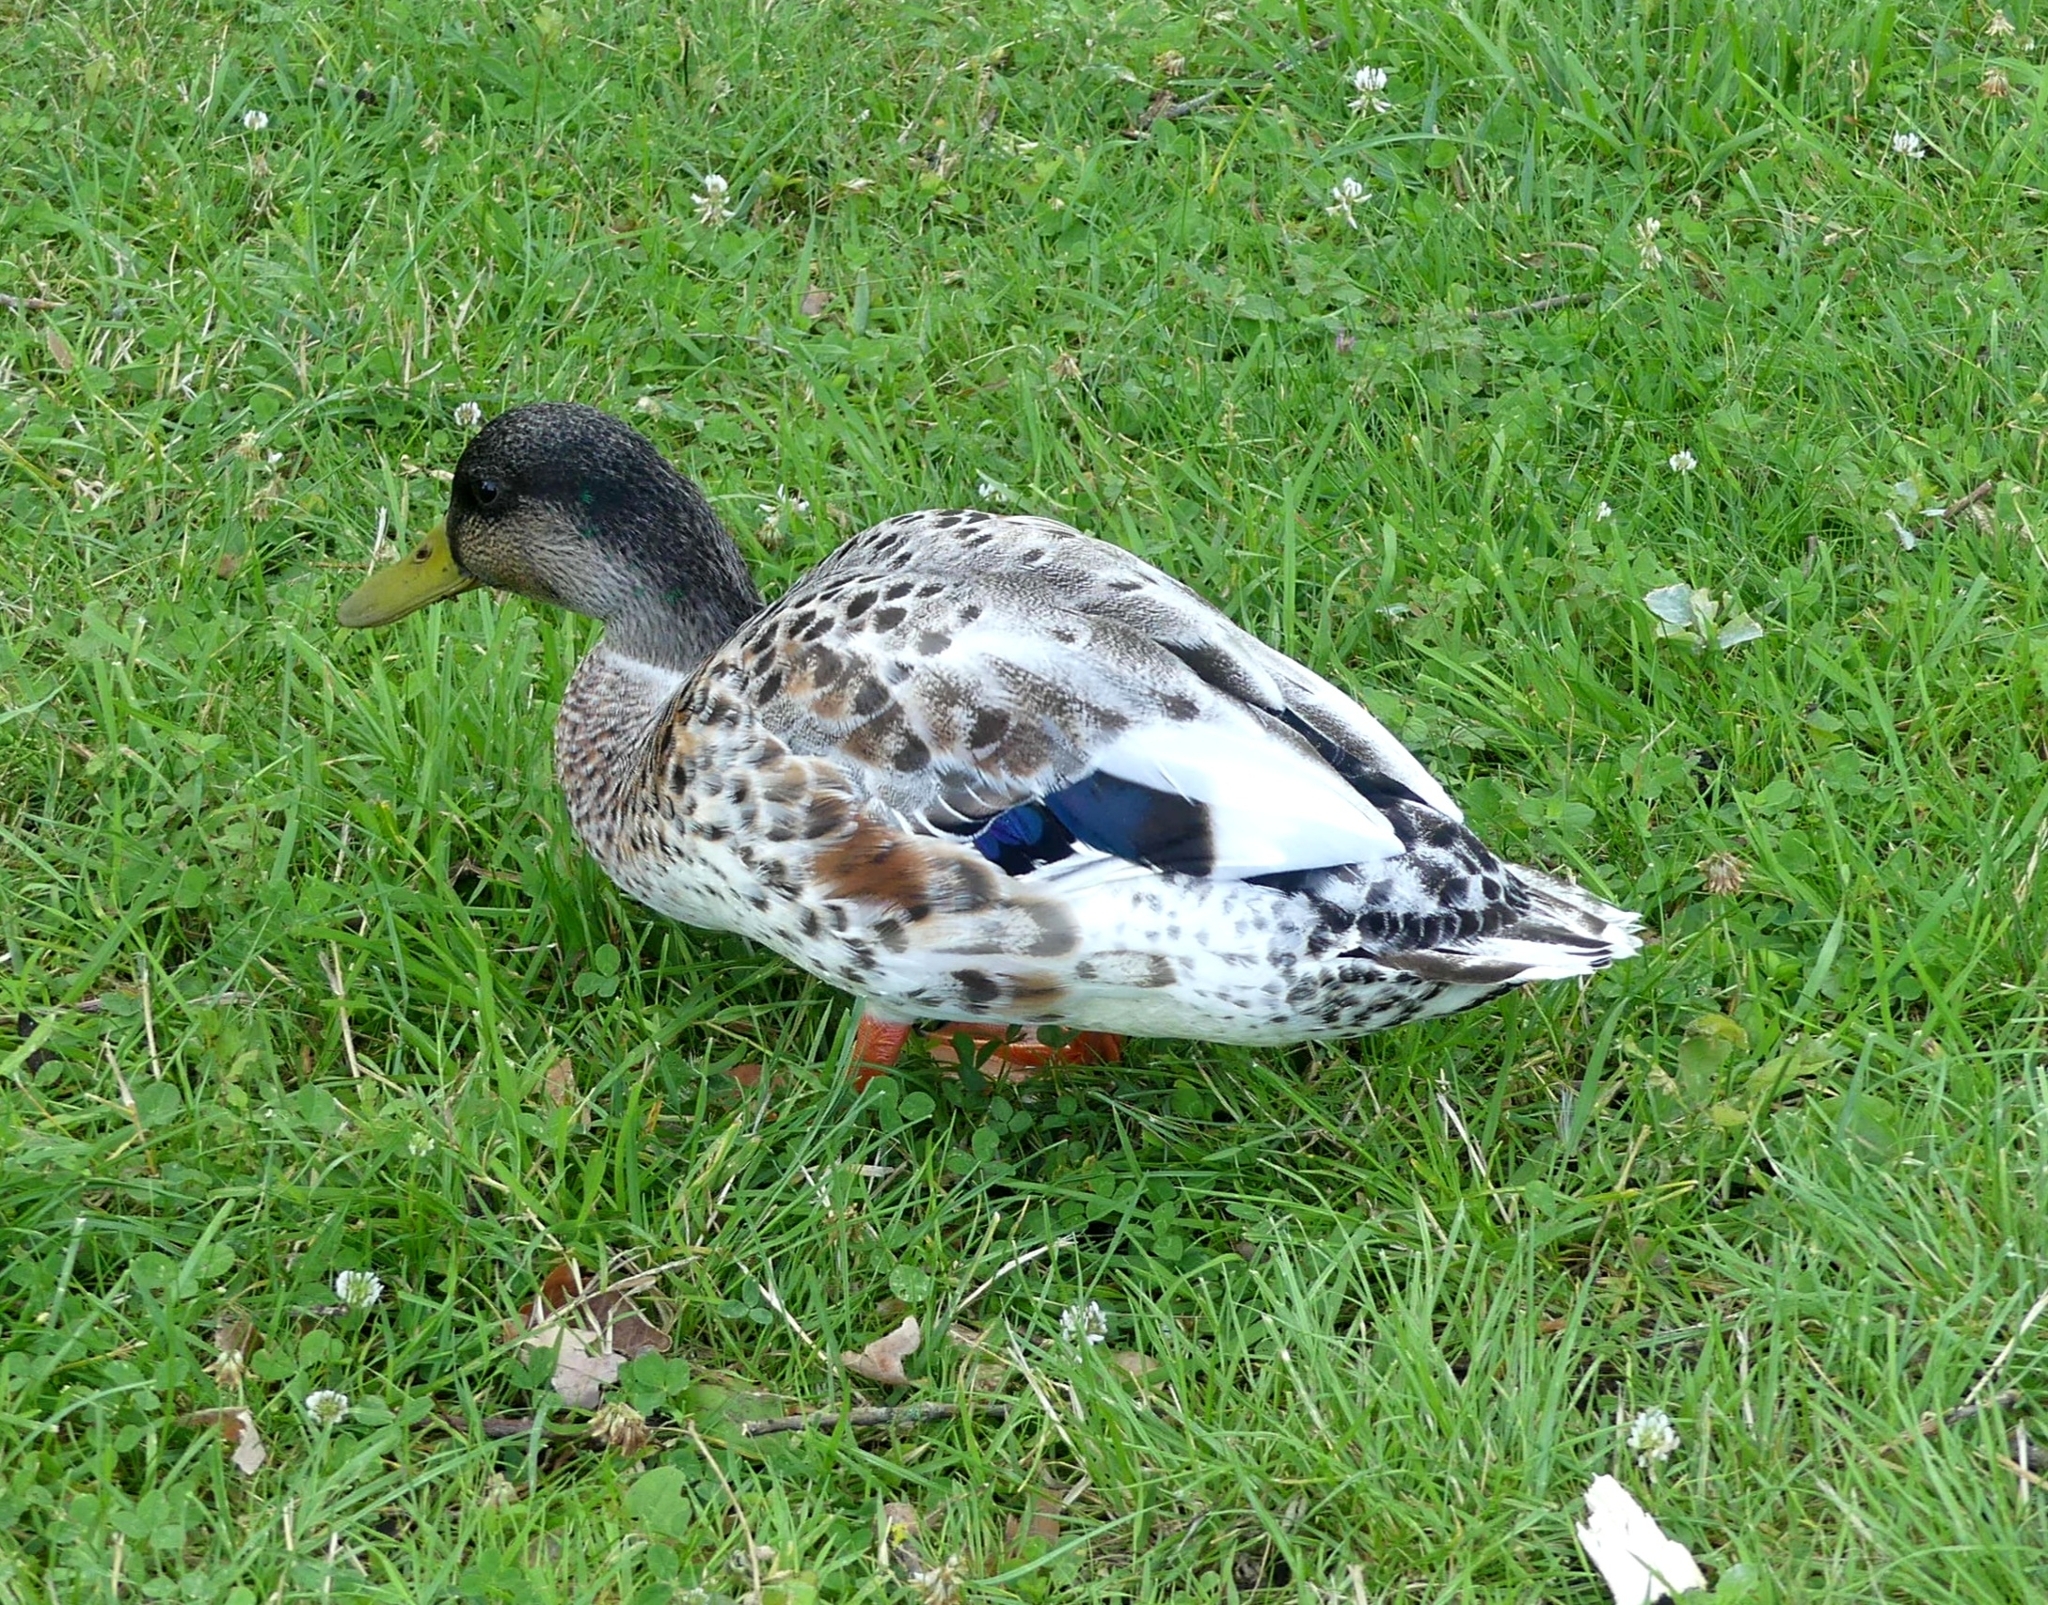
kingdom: Animalia
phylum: Chordata
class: Aves
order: Anseriformes
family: Anatidae
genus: Anas
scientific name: Anas platyrhynchos
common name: Mallard
